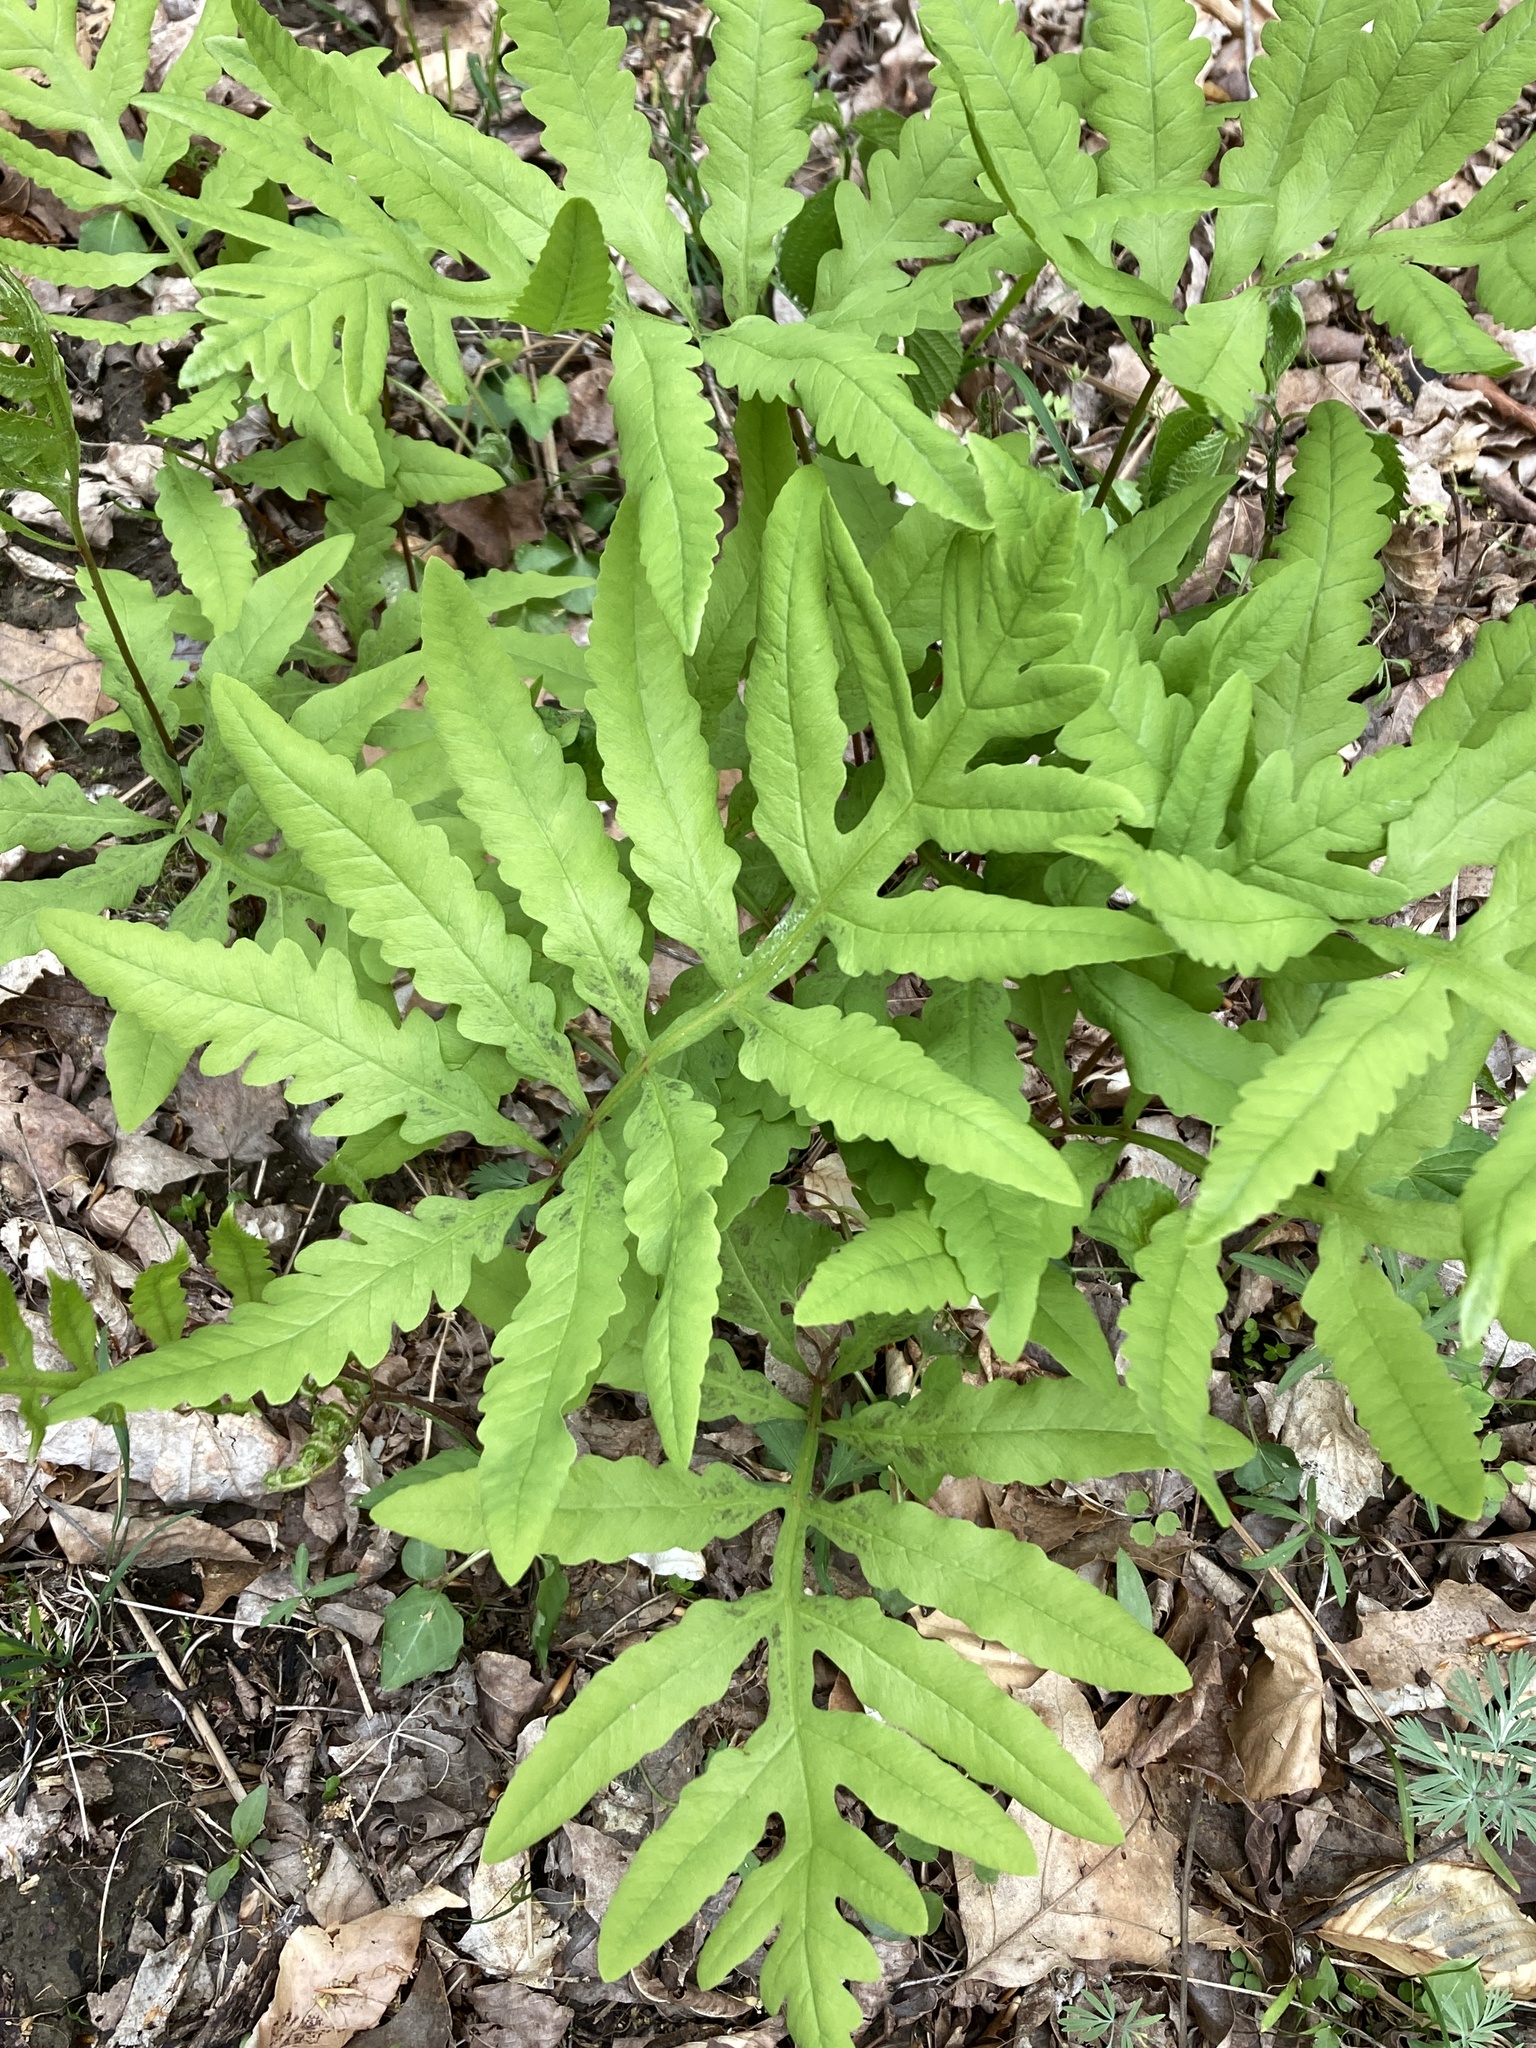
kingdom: Plantae
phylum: Tracheophyta
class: Polypodiopsida
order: Polypodiales
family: Onocleaceae
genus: Onoclea
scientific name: Onoclea sensibilis
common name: Sensitive fern
